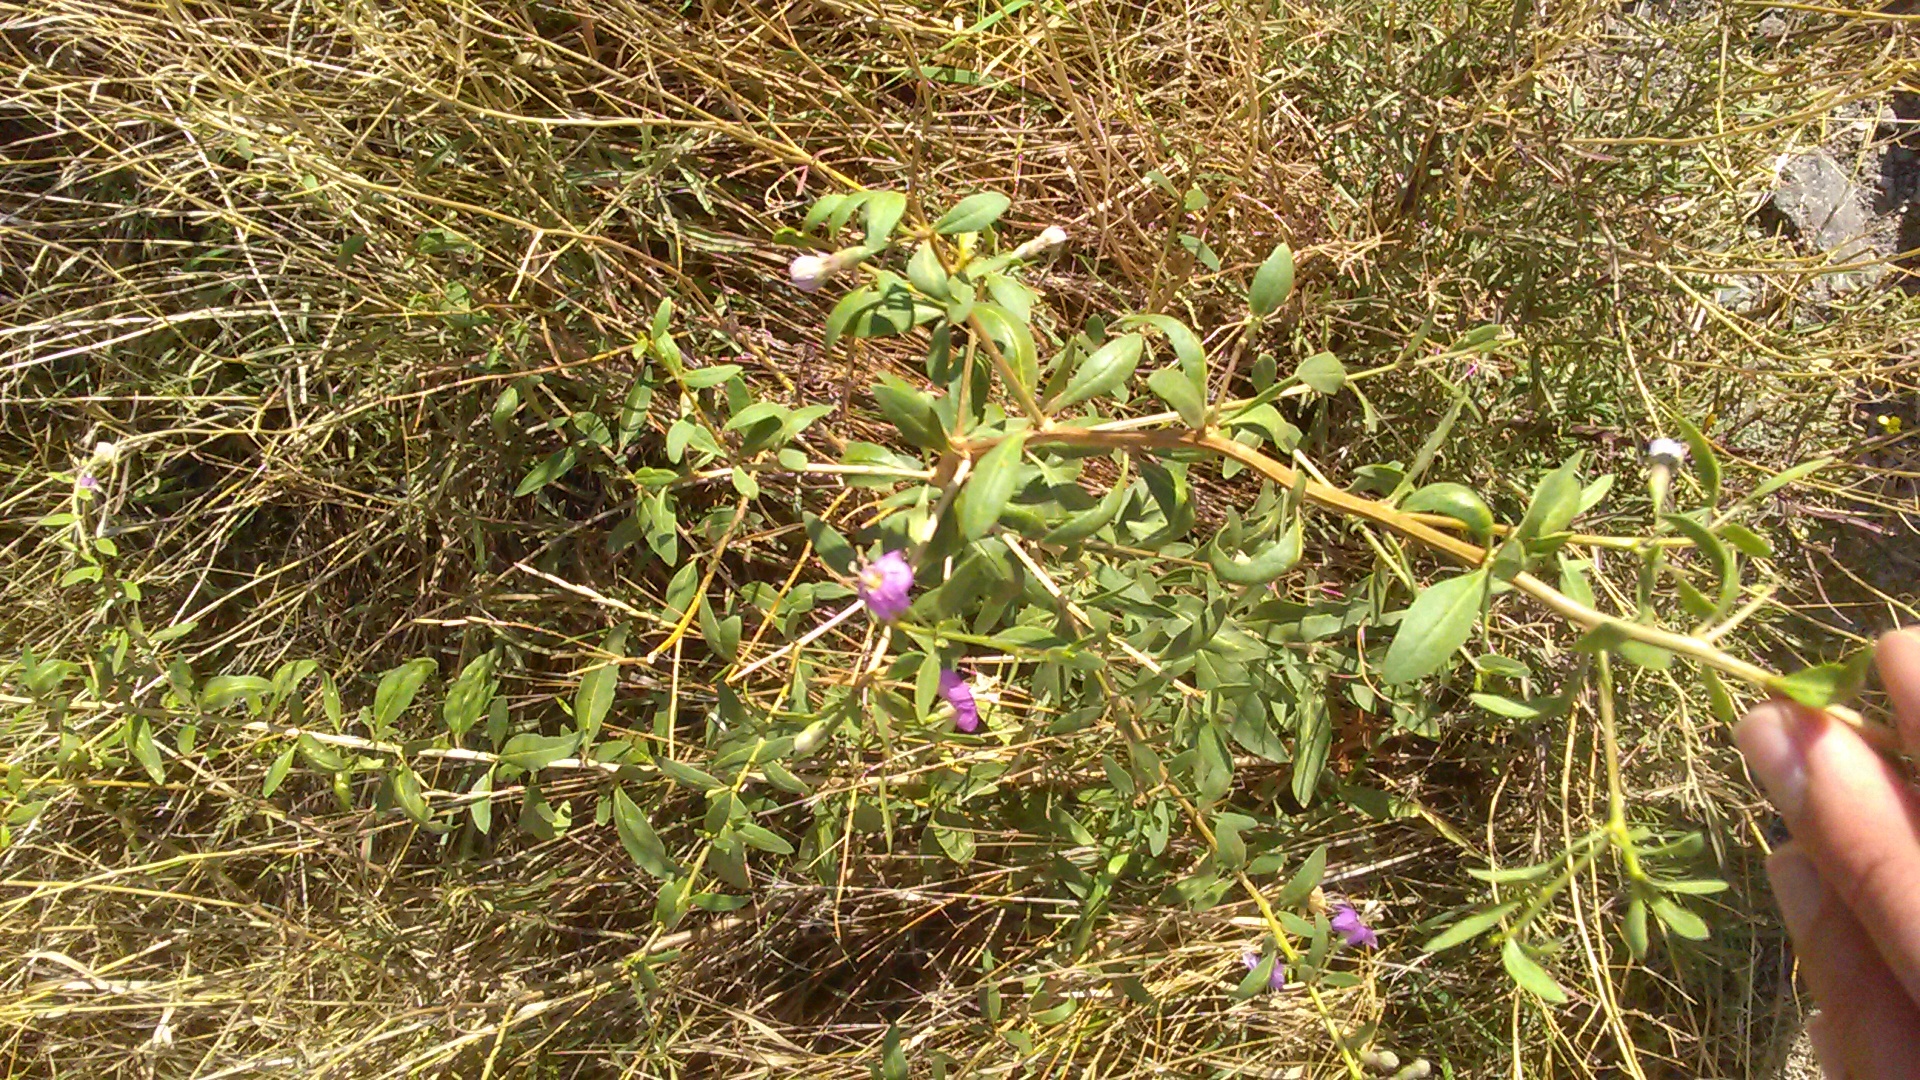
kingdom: Plantae
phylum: Tracheophyta
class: Magnoliopsida
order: Solanales
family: Solanaceae
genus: Lycium
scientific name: Lycium barbarum
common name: Duke of argyll's teaplant
